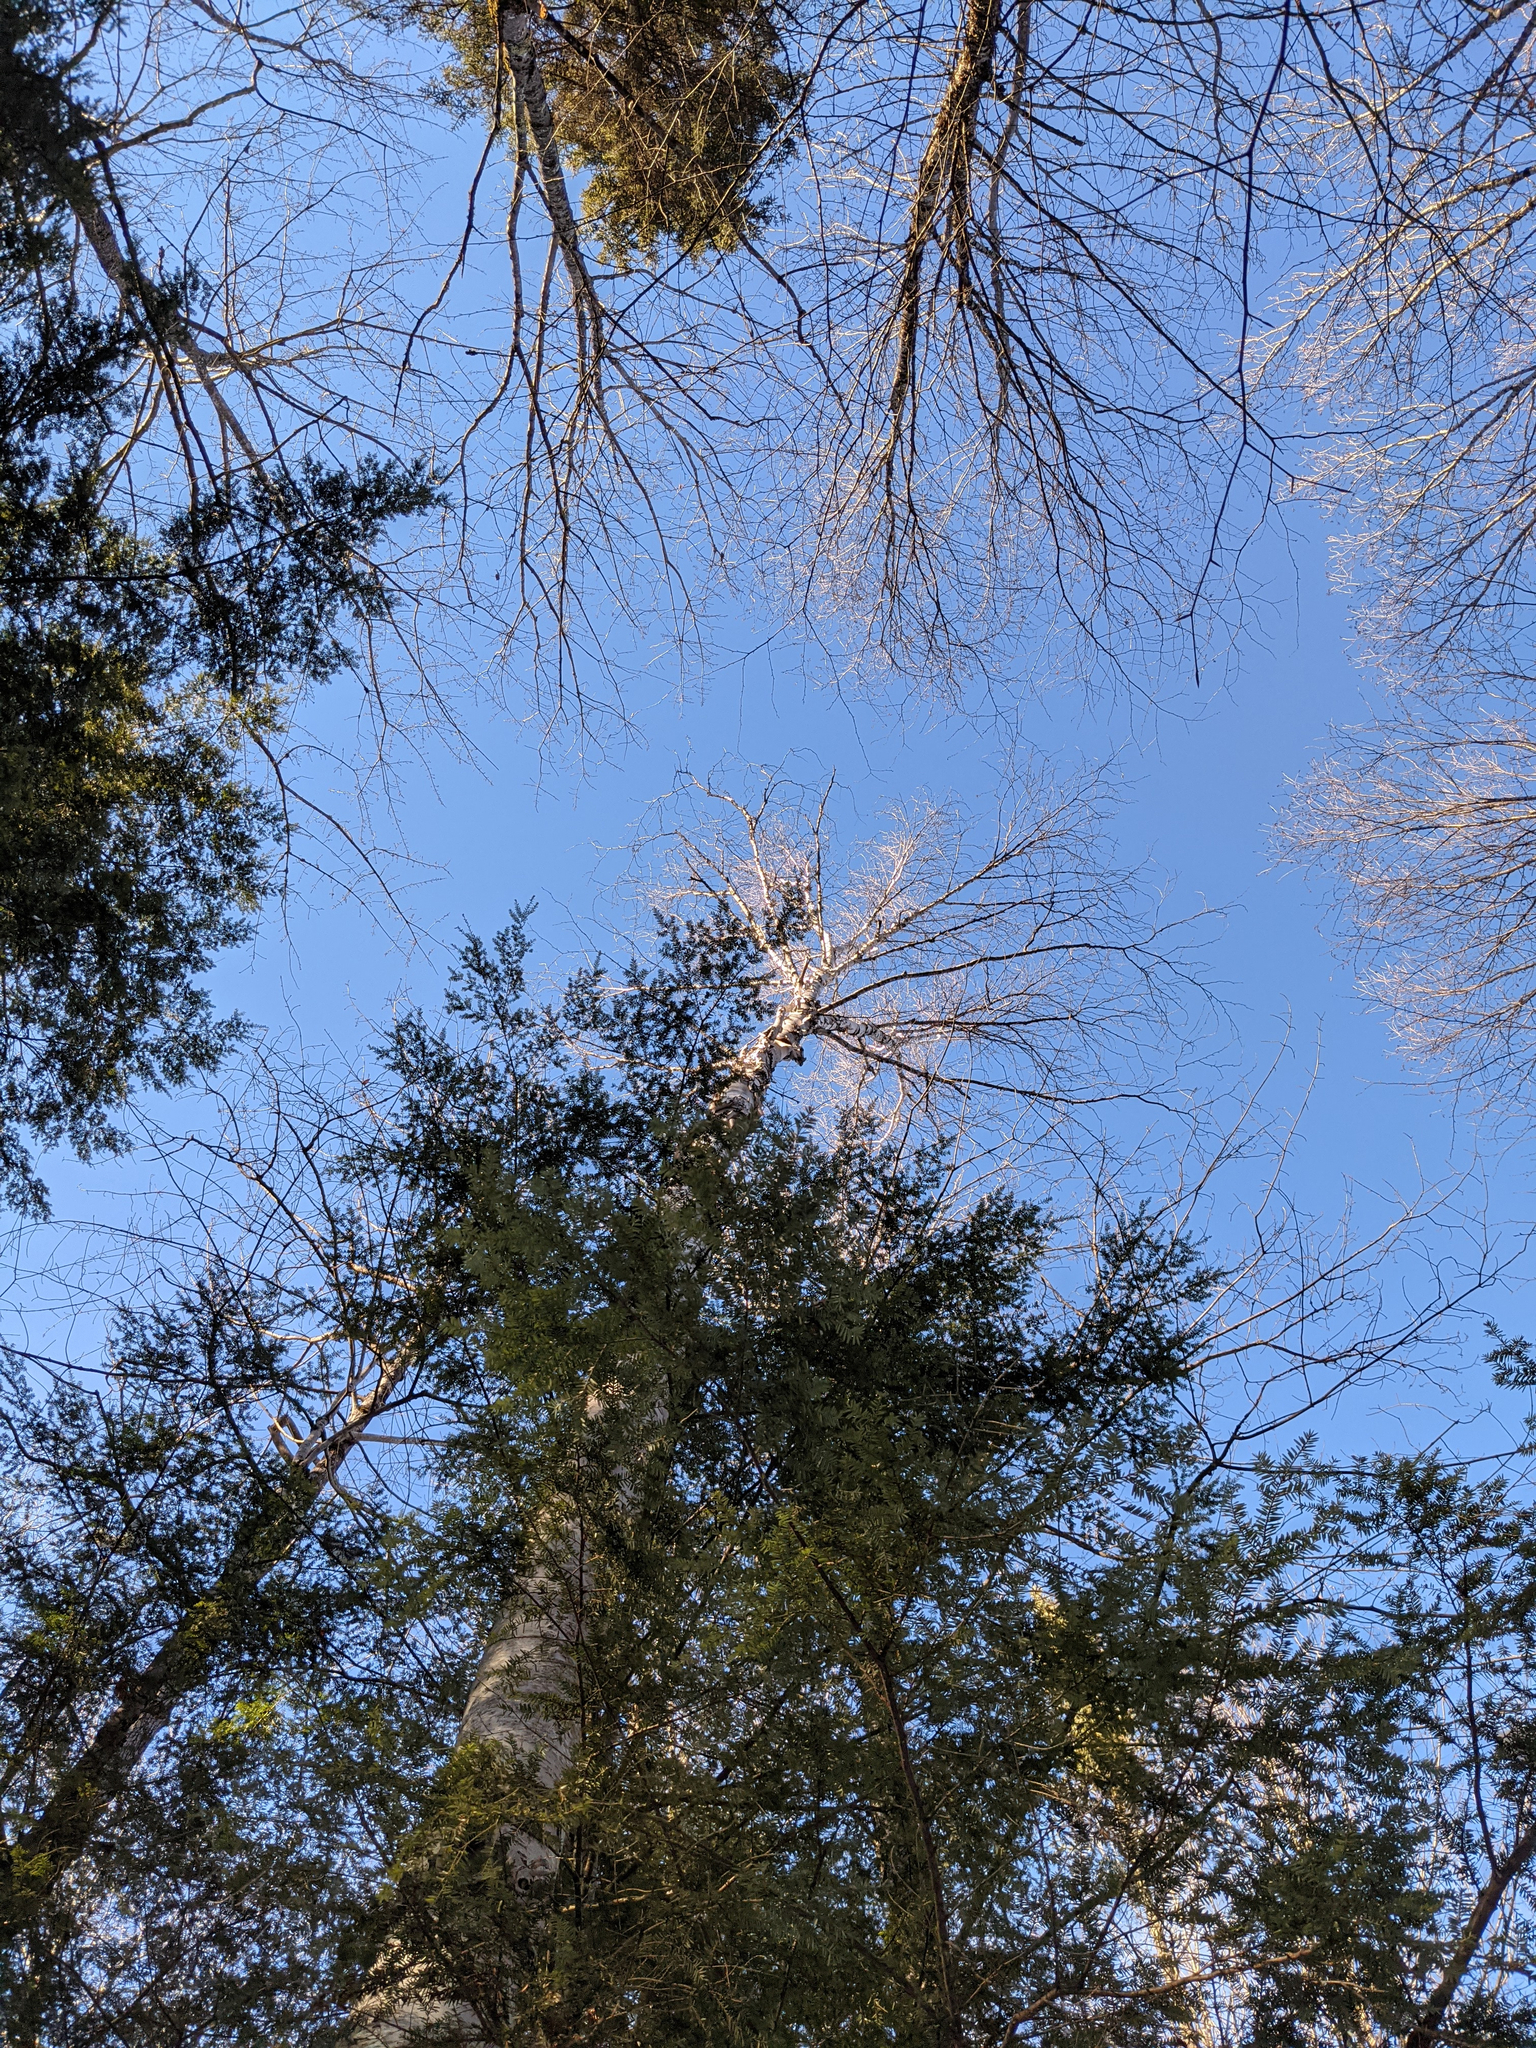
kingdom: Plantae
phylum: Tracheophyta
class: Magnoliopsida
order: Fagales
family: Betulaceae
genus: Betula
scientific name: Betula papyrifera
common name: Paper birch
